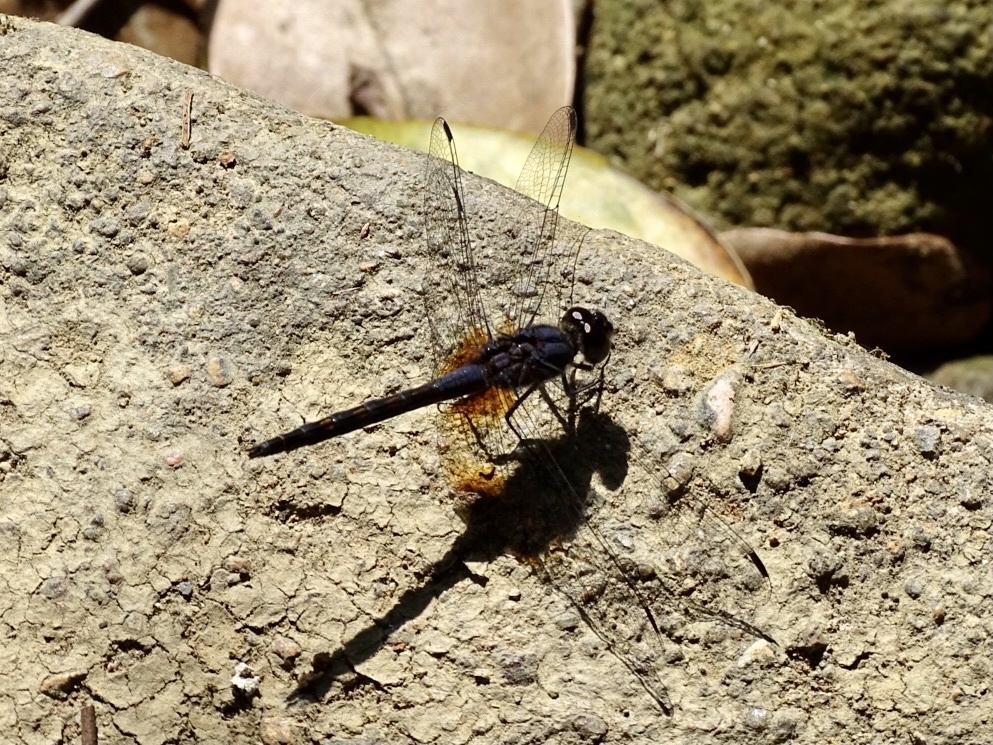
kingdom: Animalia
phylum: Arthropoda
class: Insecta
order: Odonata
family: Libellulidae
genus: Trithemis
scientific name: Trithemis festiva
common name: Indigo dropwing
